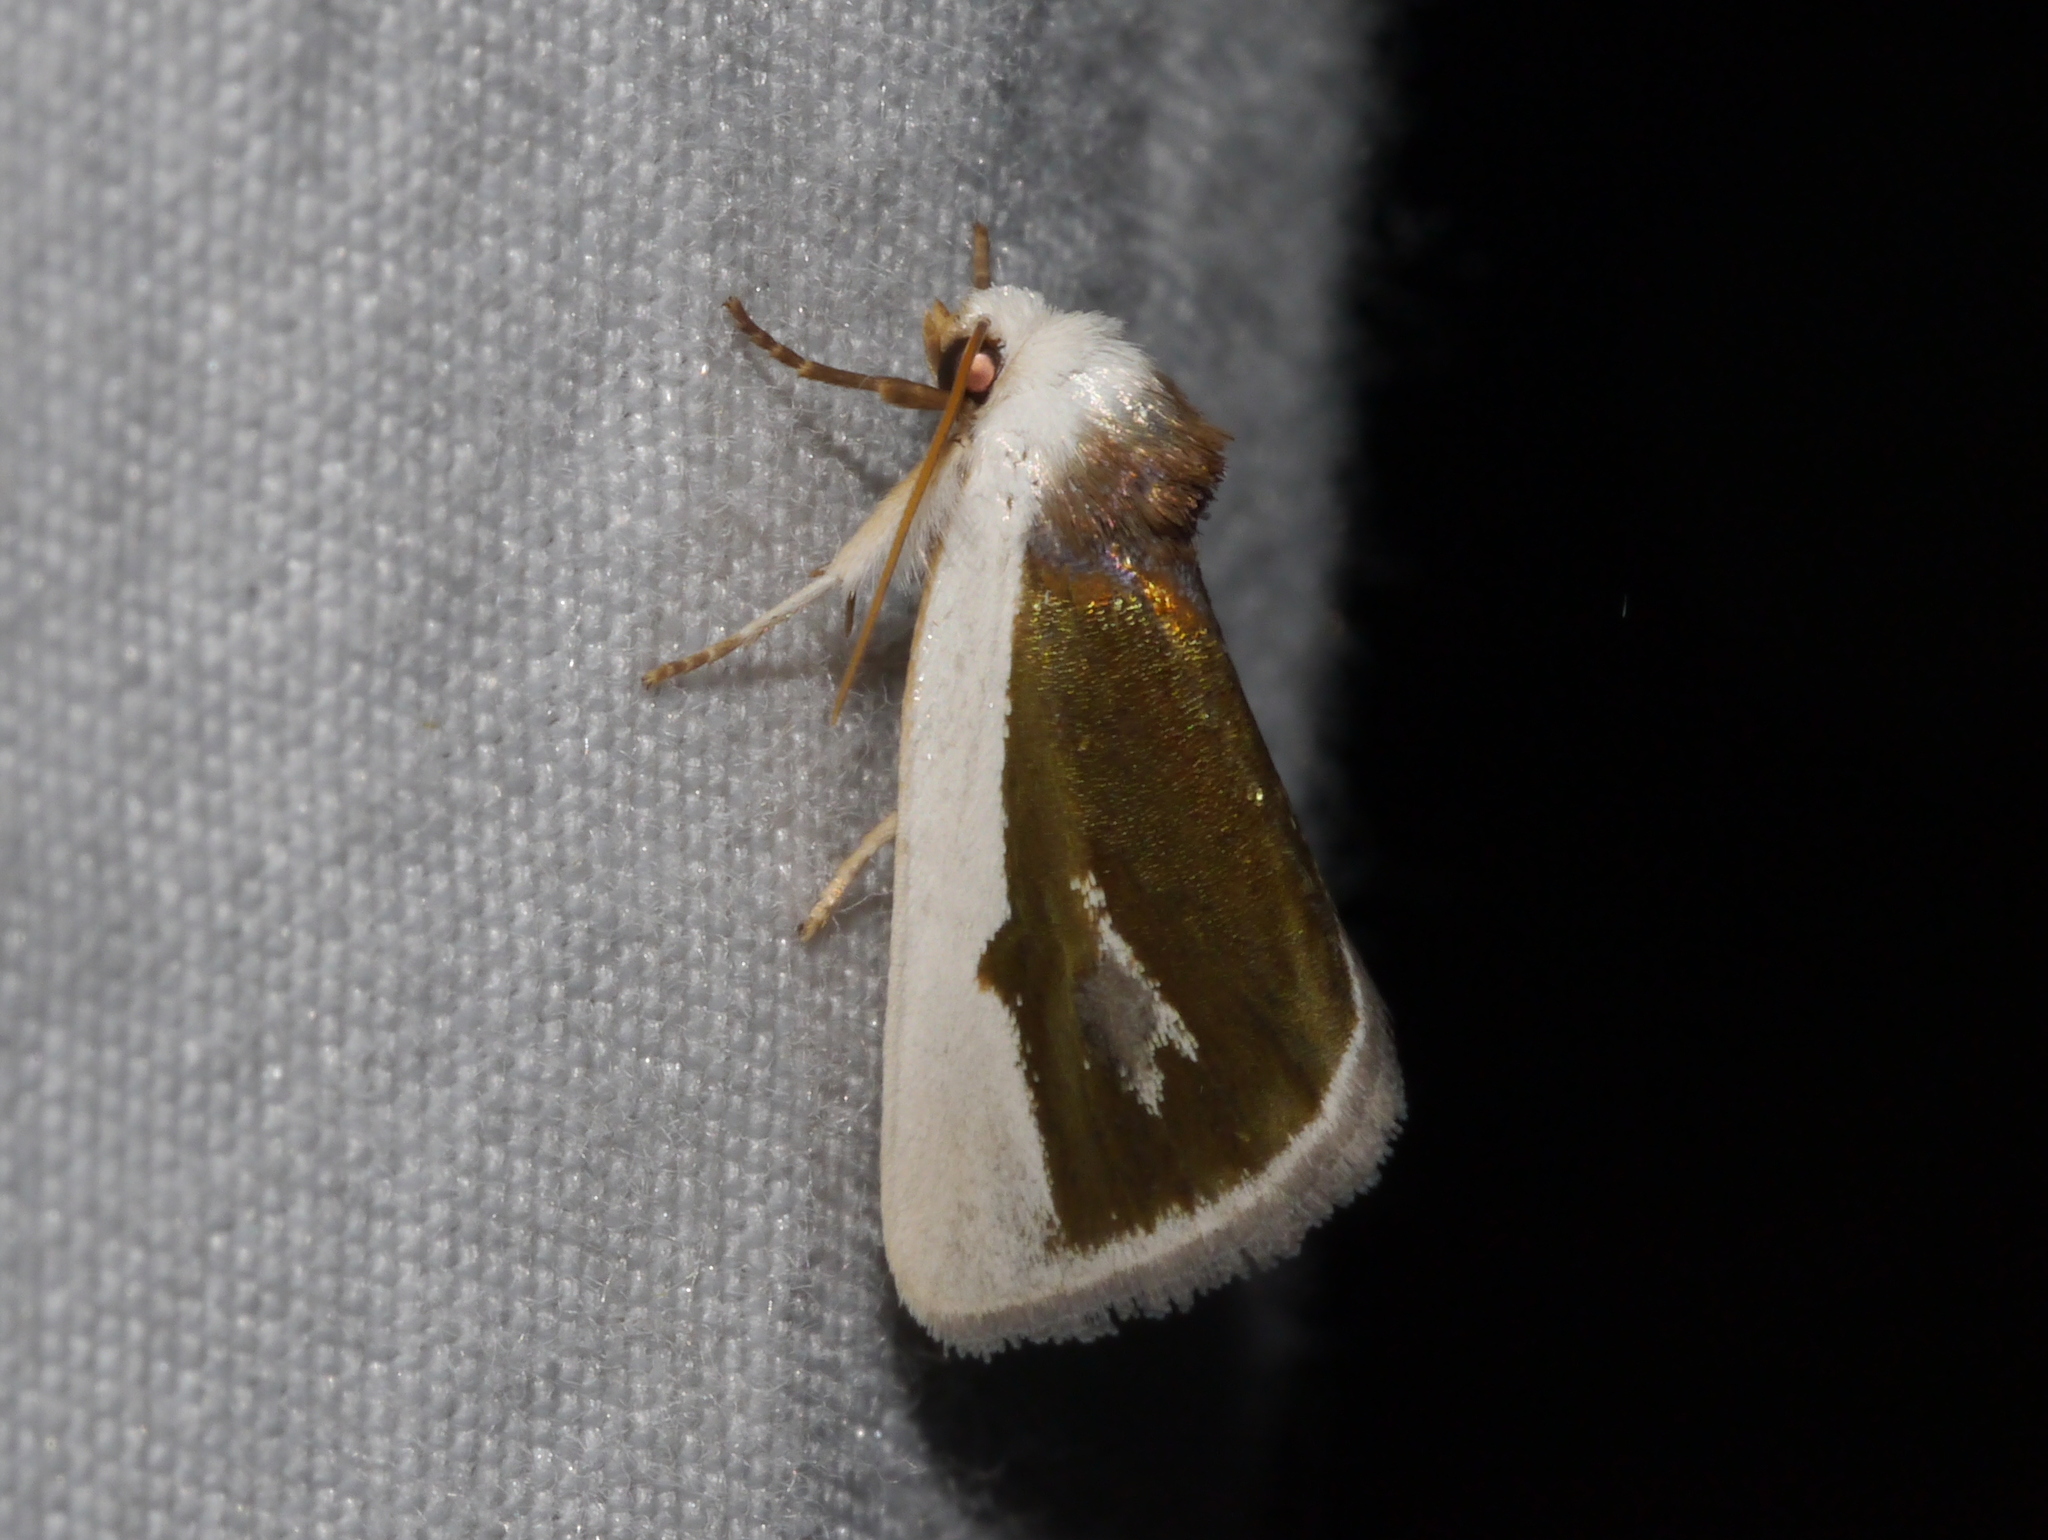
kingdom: Animalia
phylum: Arthropoda
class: Insecta
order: Lepidoptera
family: Noctuidae
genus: Neumoegenia
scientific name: Neumoegenia poetica
